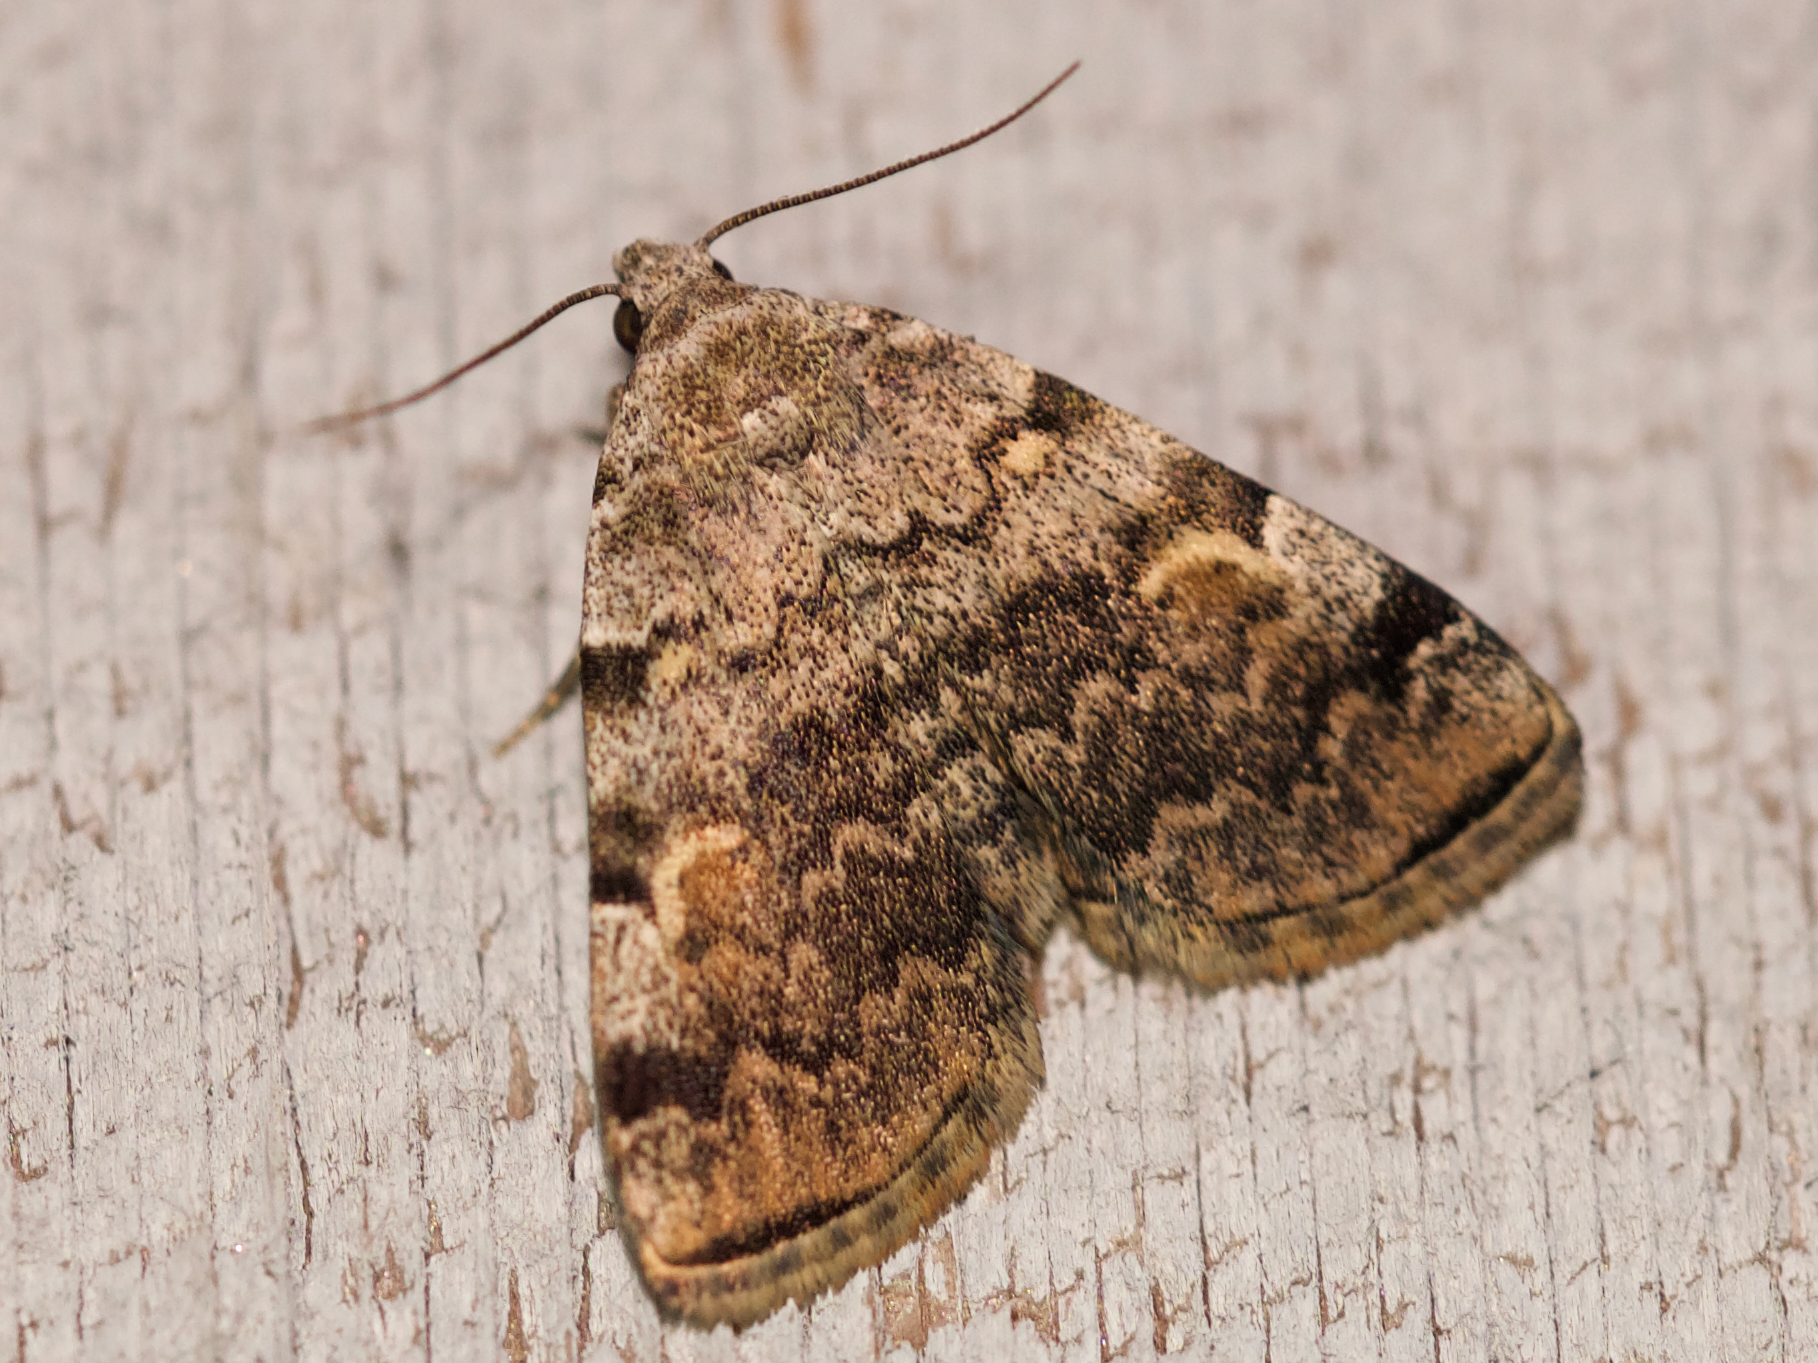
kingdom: Animalia
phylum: Arthropoda
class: Insecta
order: Lepidoptera
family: Erebidae
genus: Idia
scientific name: Idia americalis
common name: American idia moth
